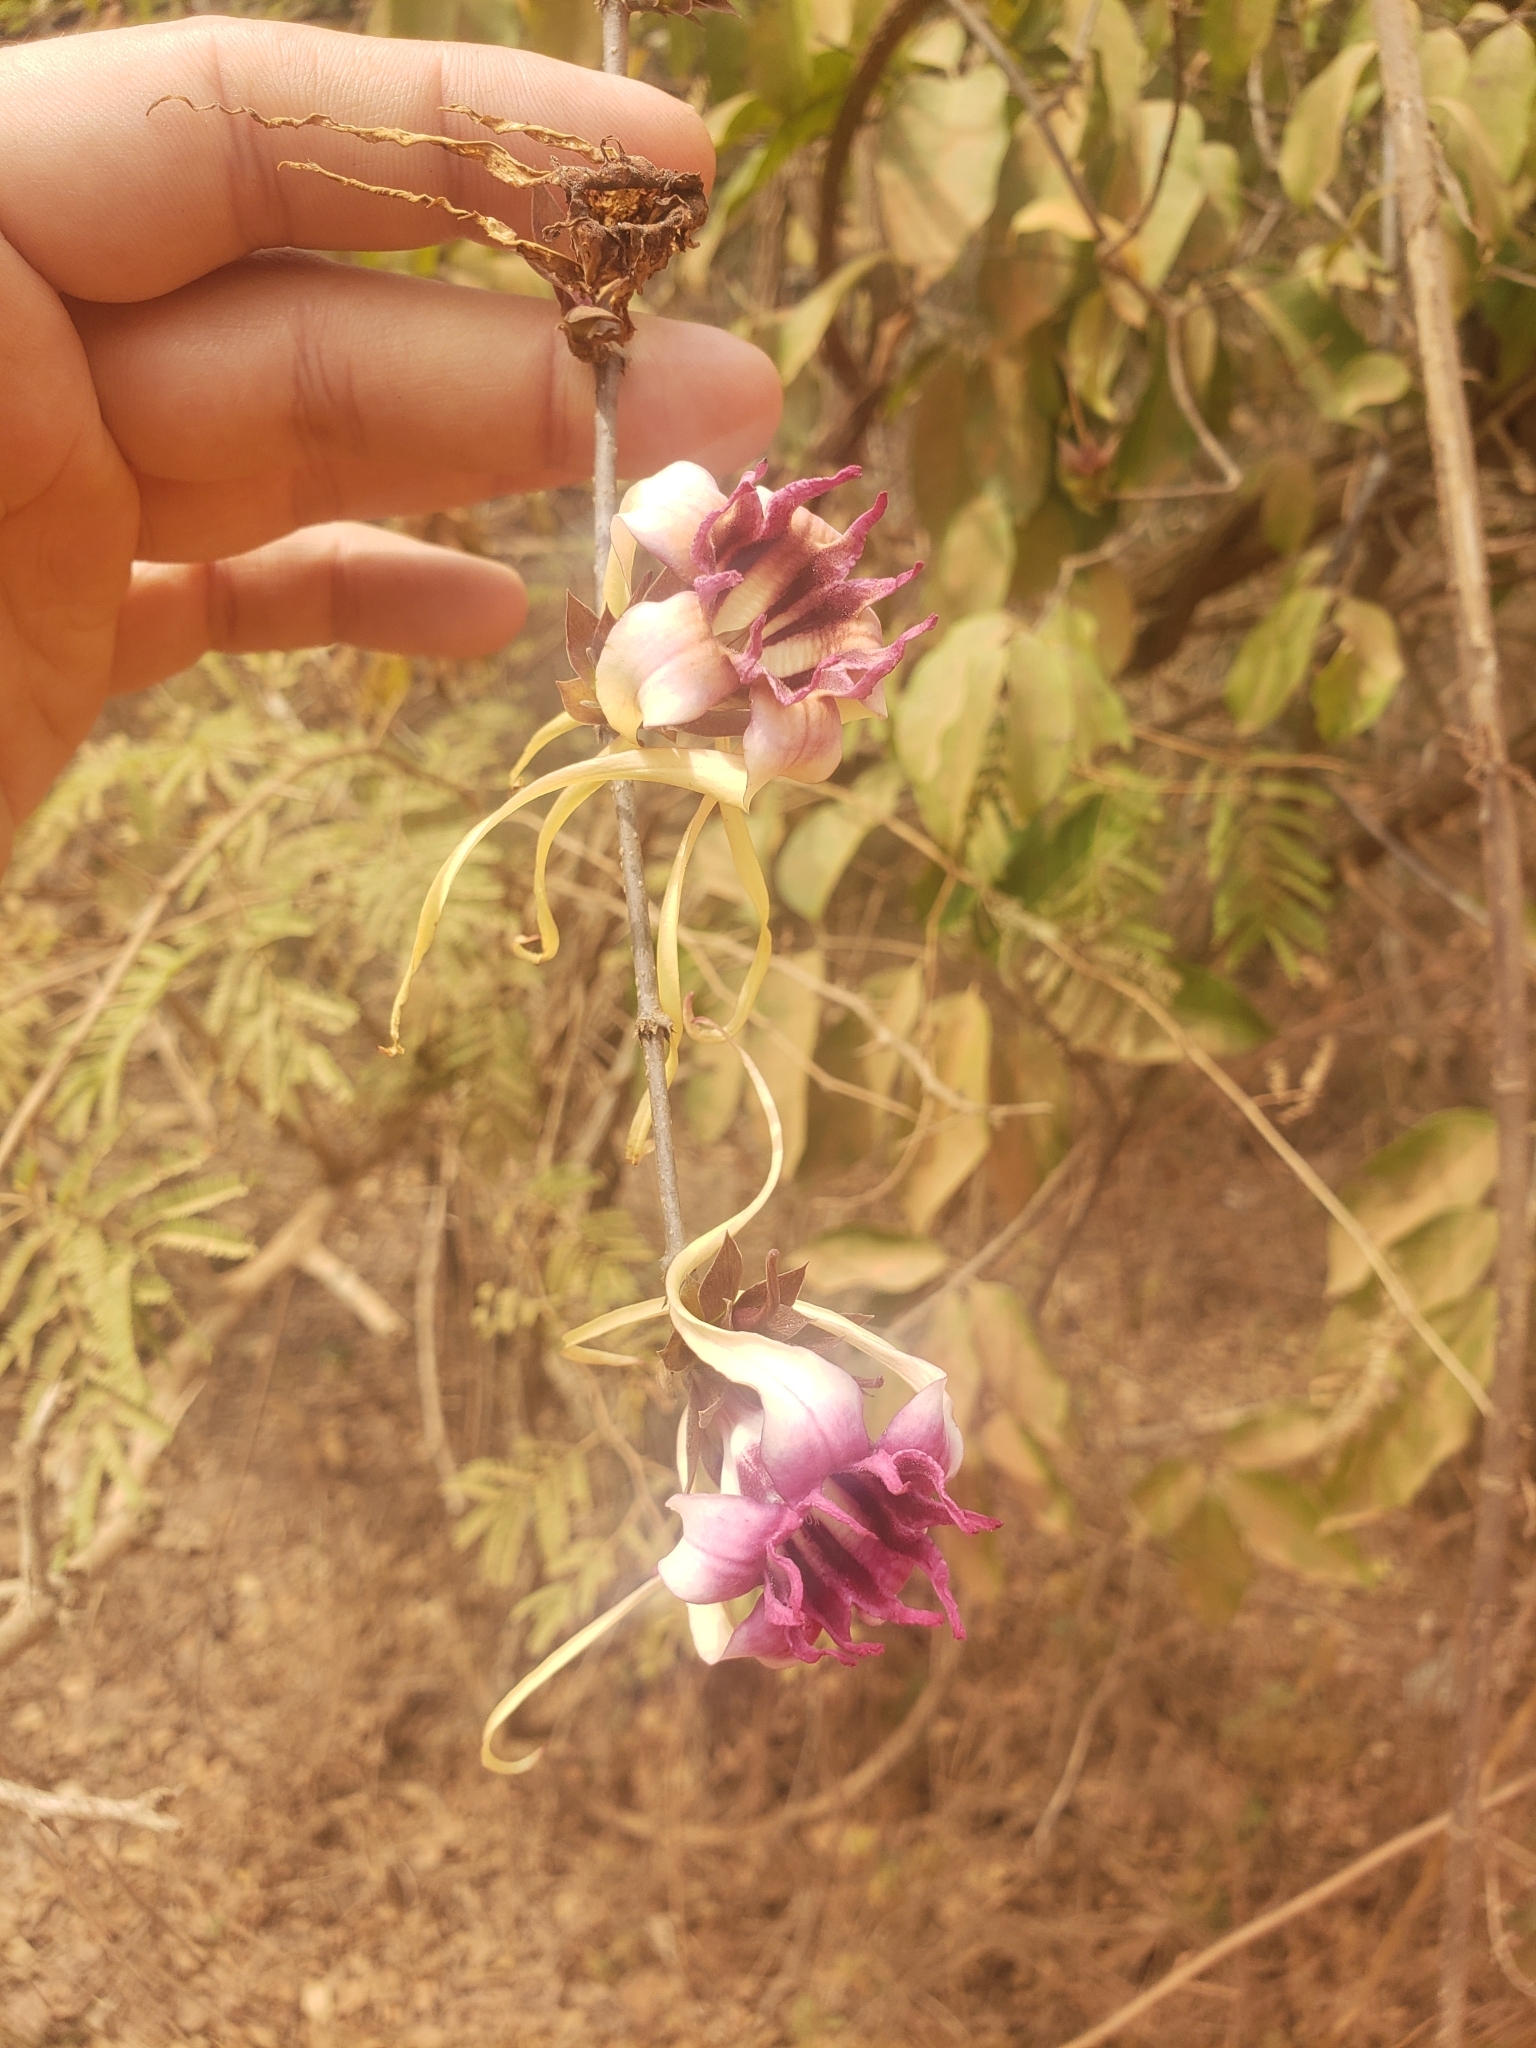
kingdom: Plantae
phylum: Tracheophyta
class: Magnoliopsida
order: Gentianales
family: Apocynaceae
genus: Strophanthus
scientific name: Strophanthus sarmentosus
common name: Poison arrowvine
